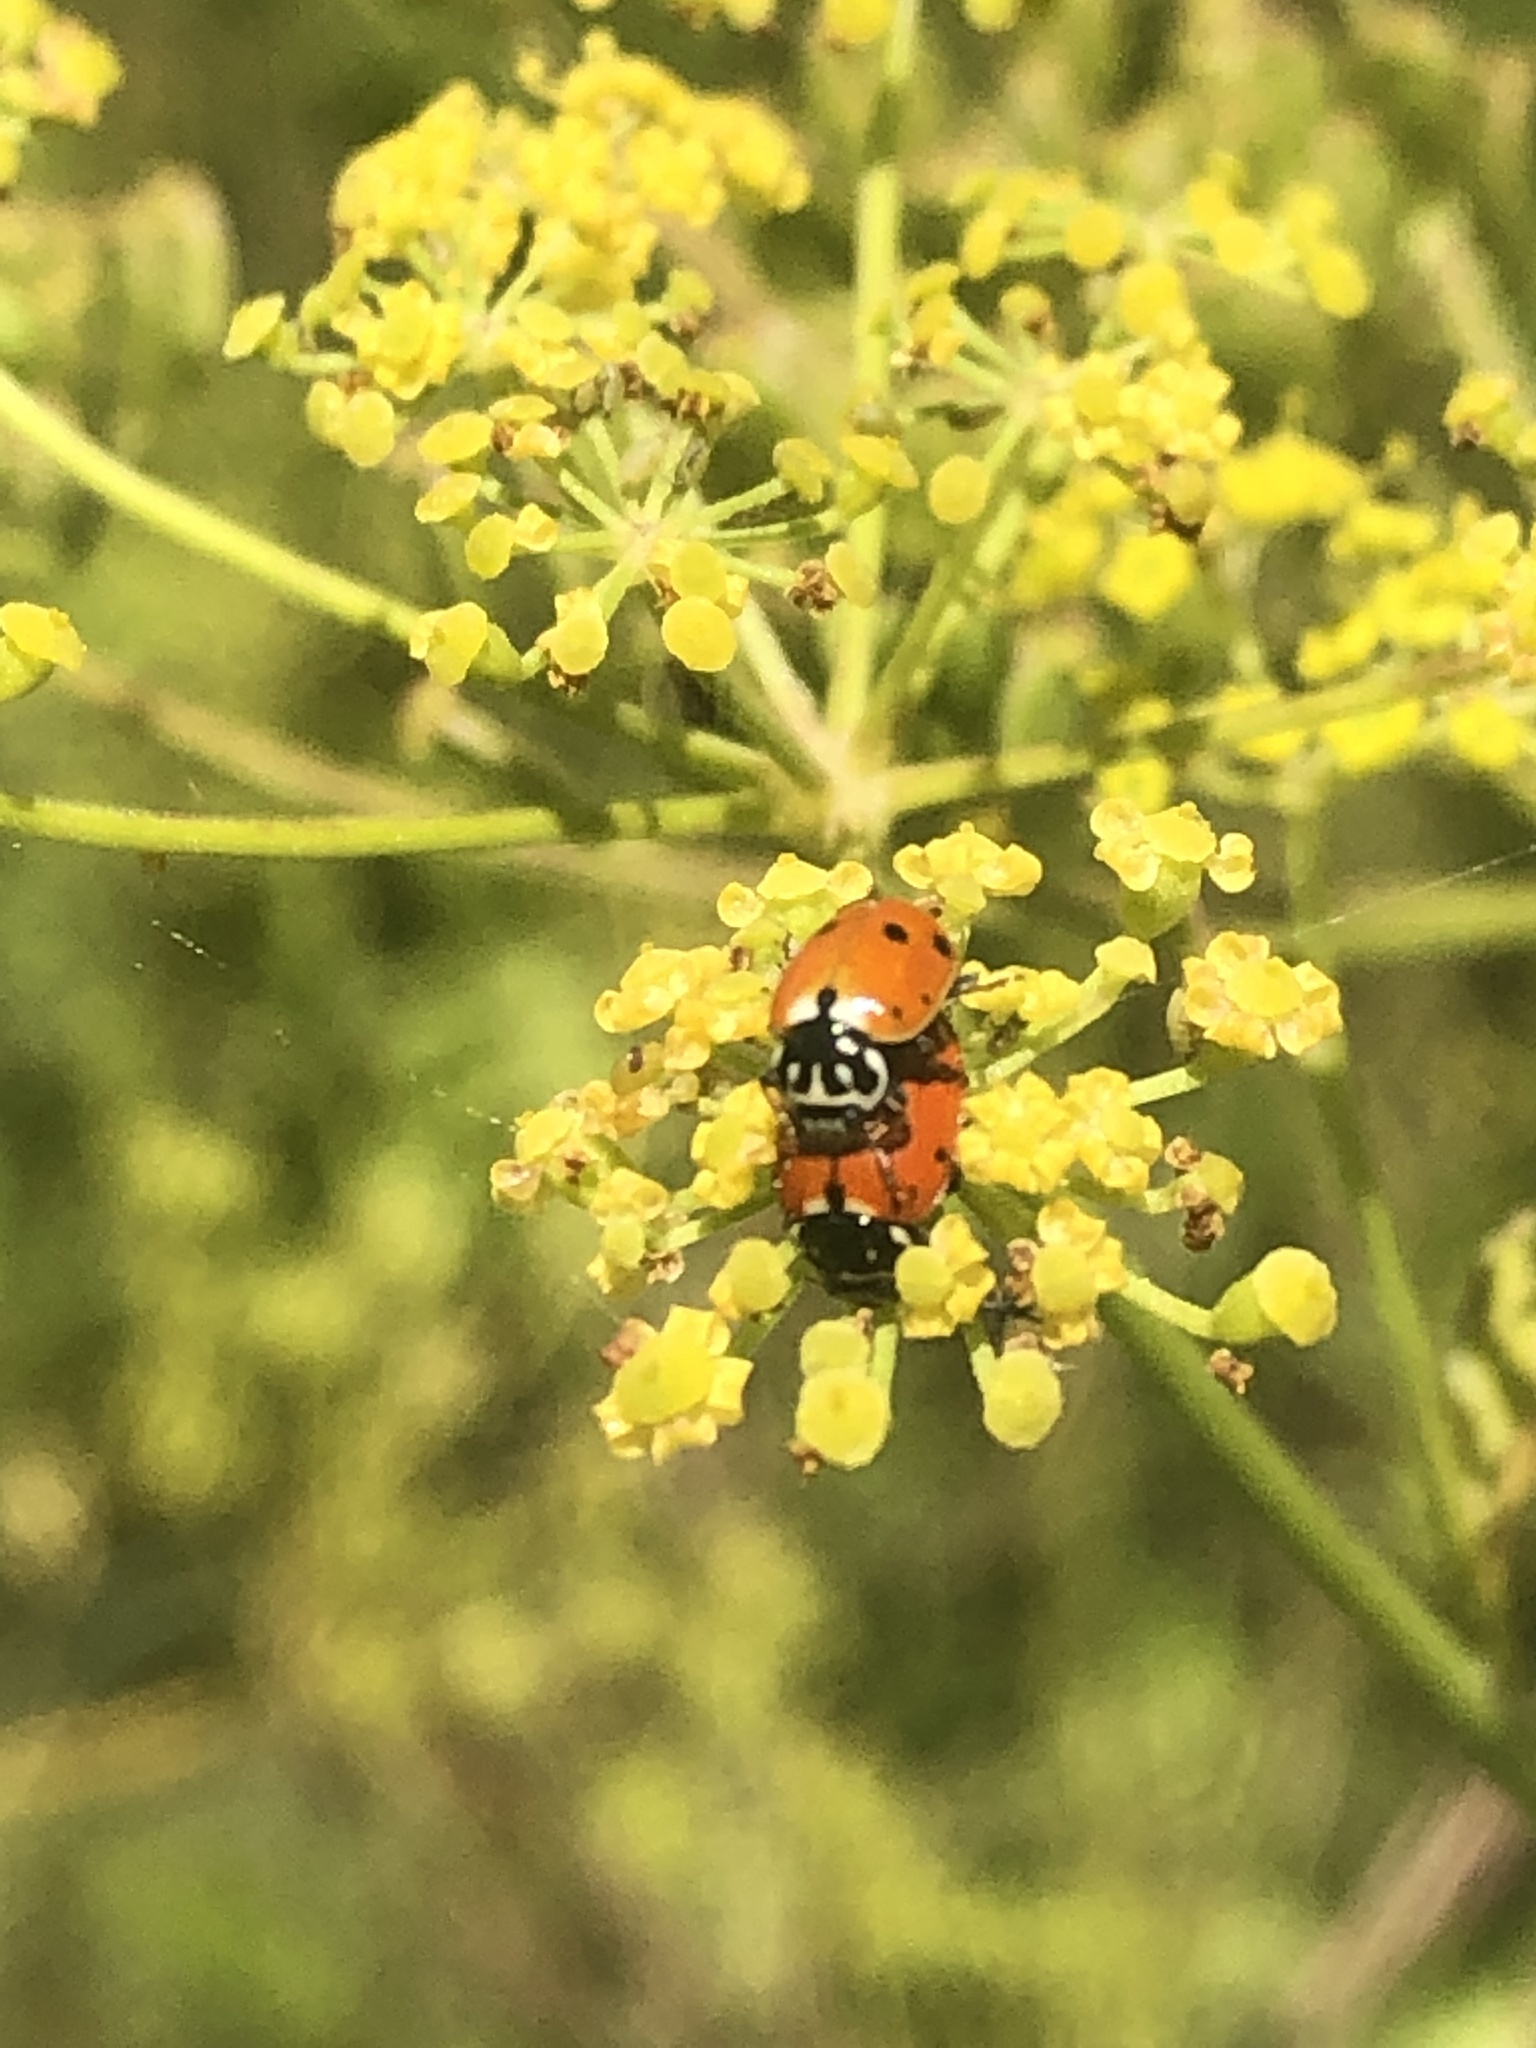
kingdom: Animalia
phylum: Arthropoda
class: Insecta
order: Coleoptera
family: Coccinellidae
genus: Hippodamia
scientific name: Hippodamia variegata
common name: Ladybird beetle
